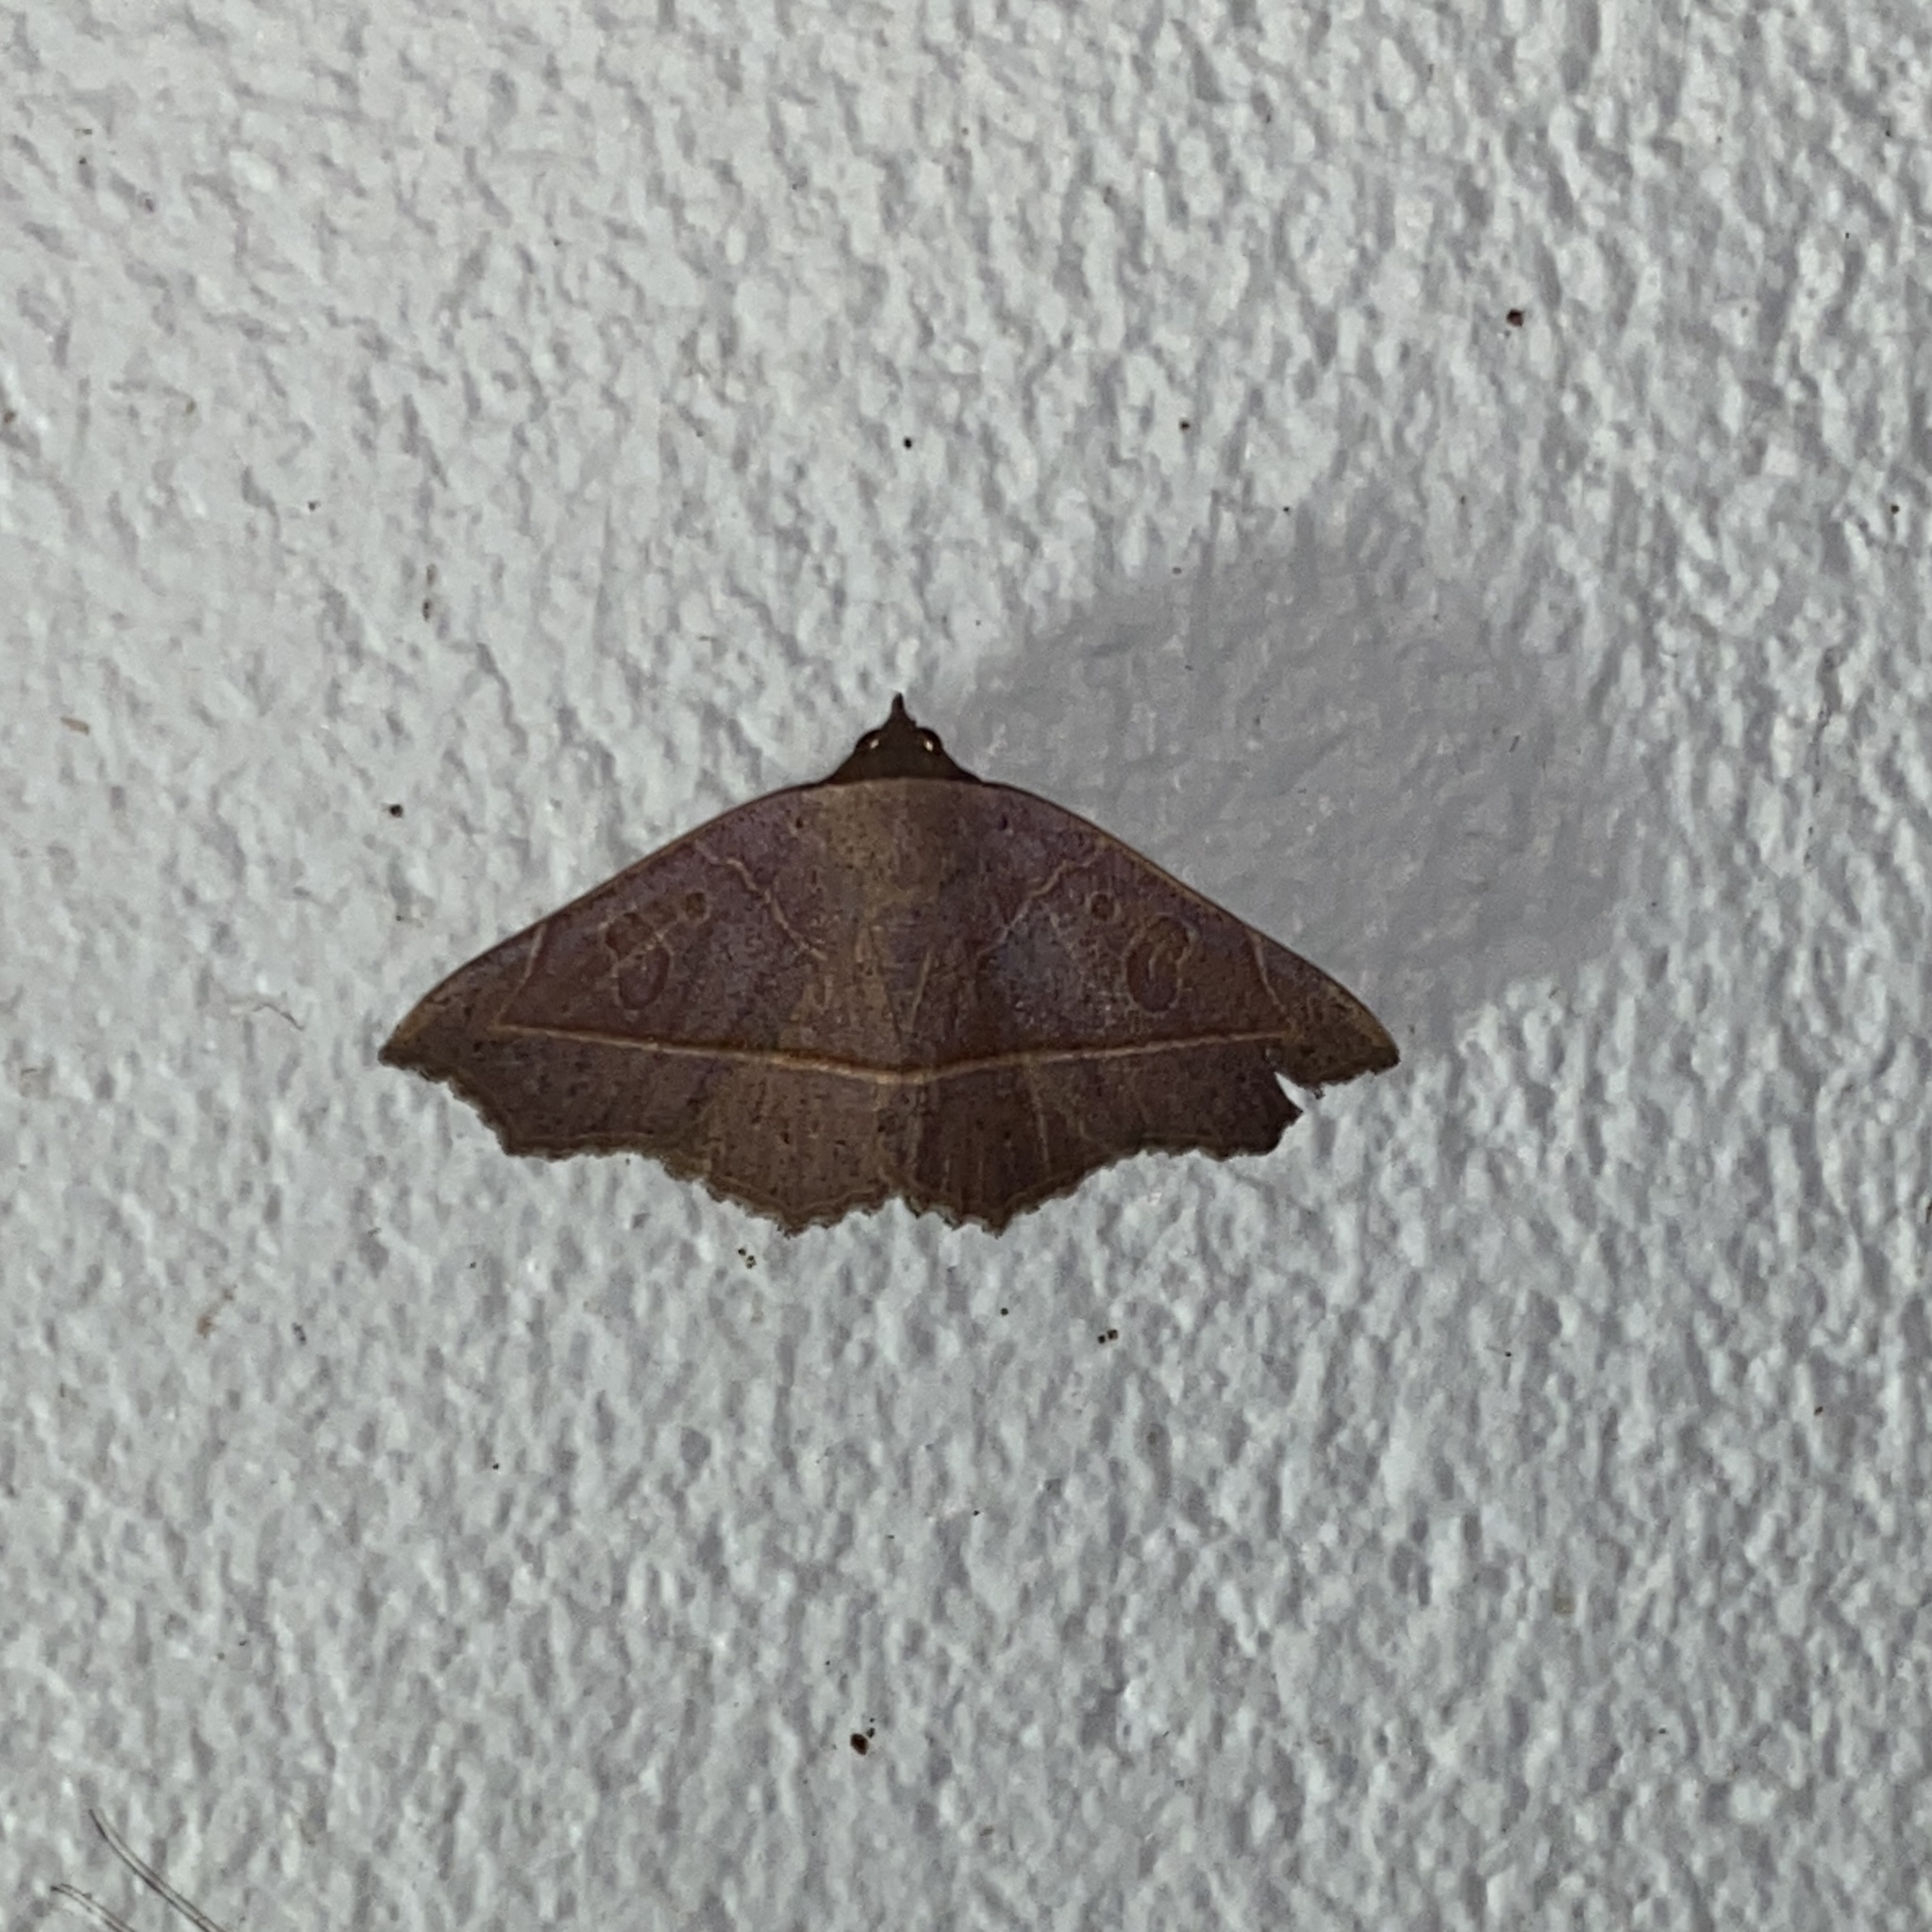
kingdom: Animalia
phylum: Arthropoda
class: Insecta
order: Lepidoptera
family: Erebidae
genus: Epitausa
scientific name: Epitausa pallescens
